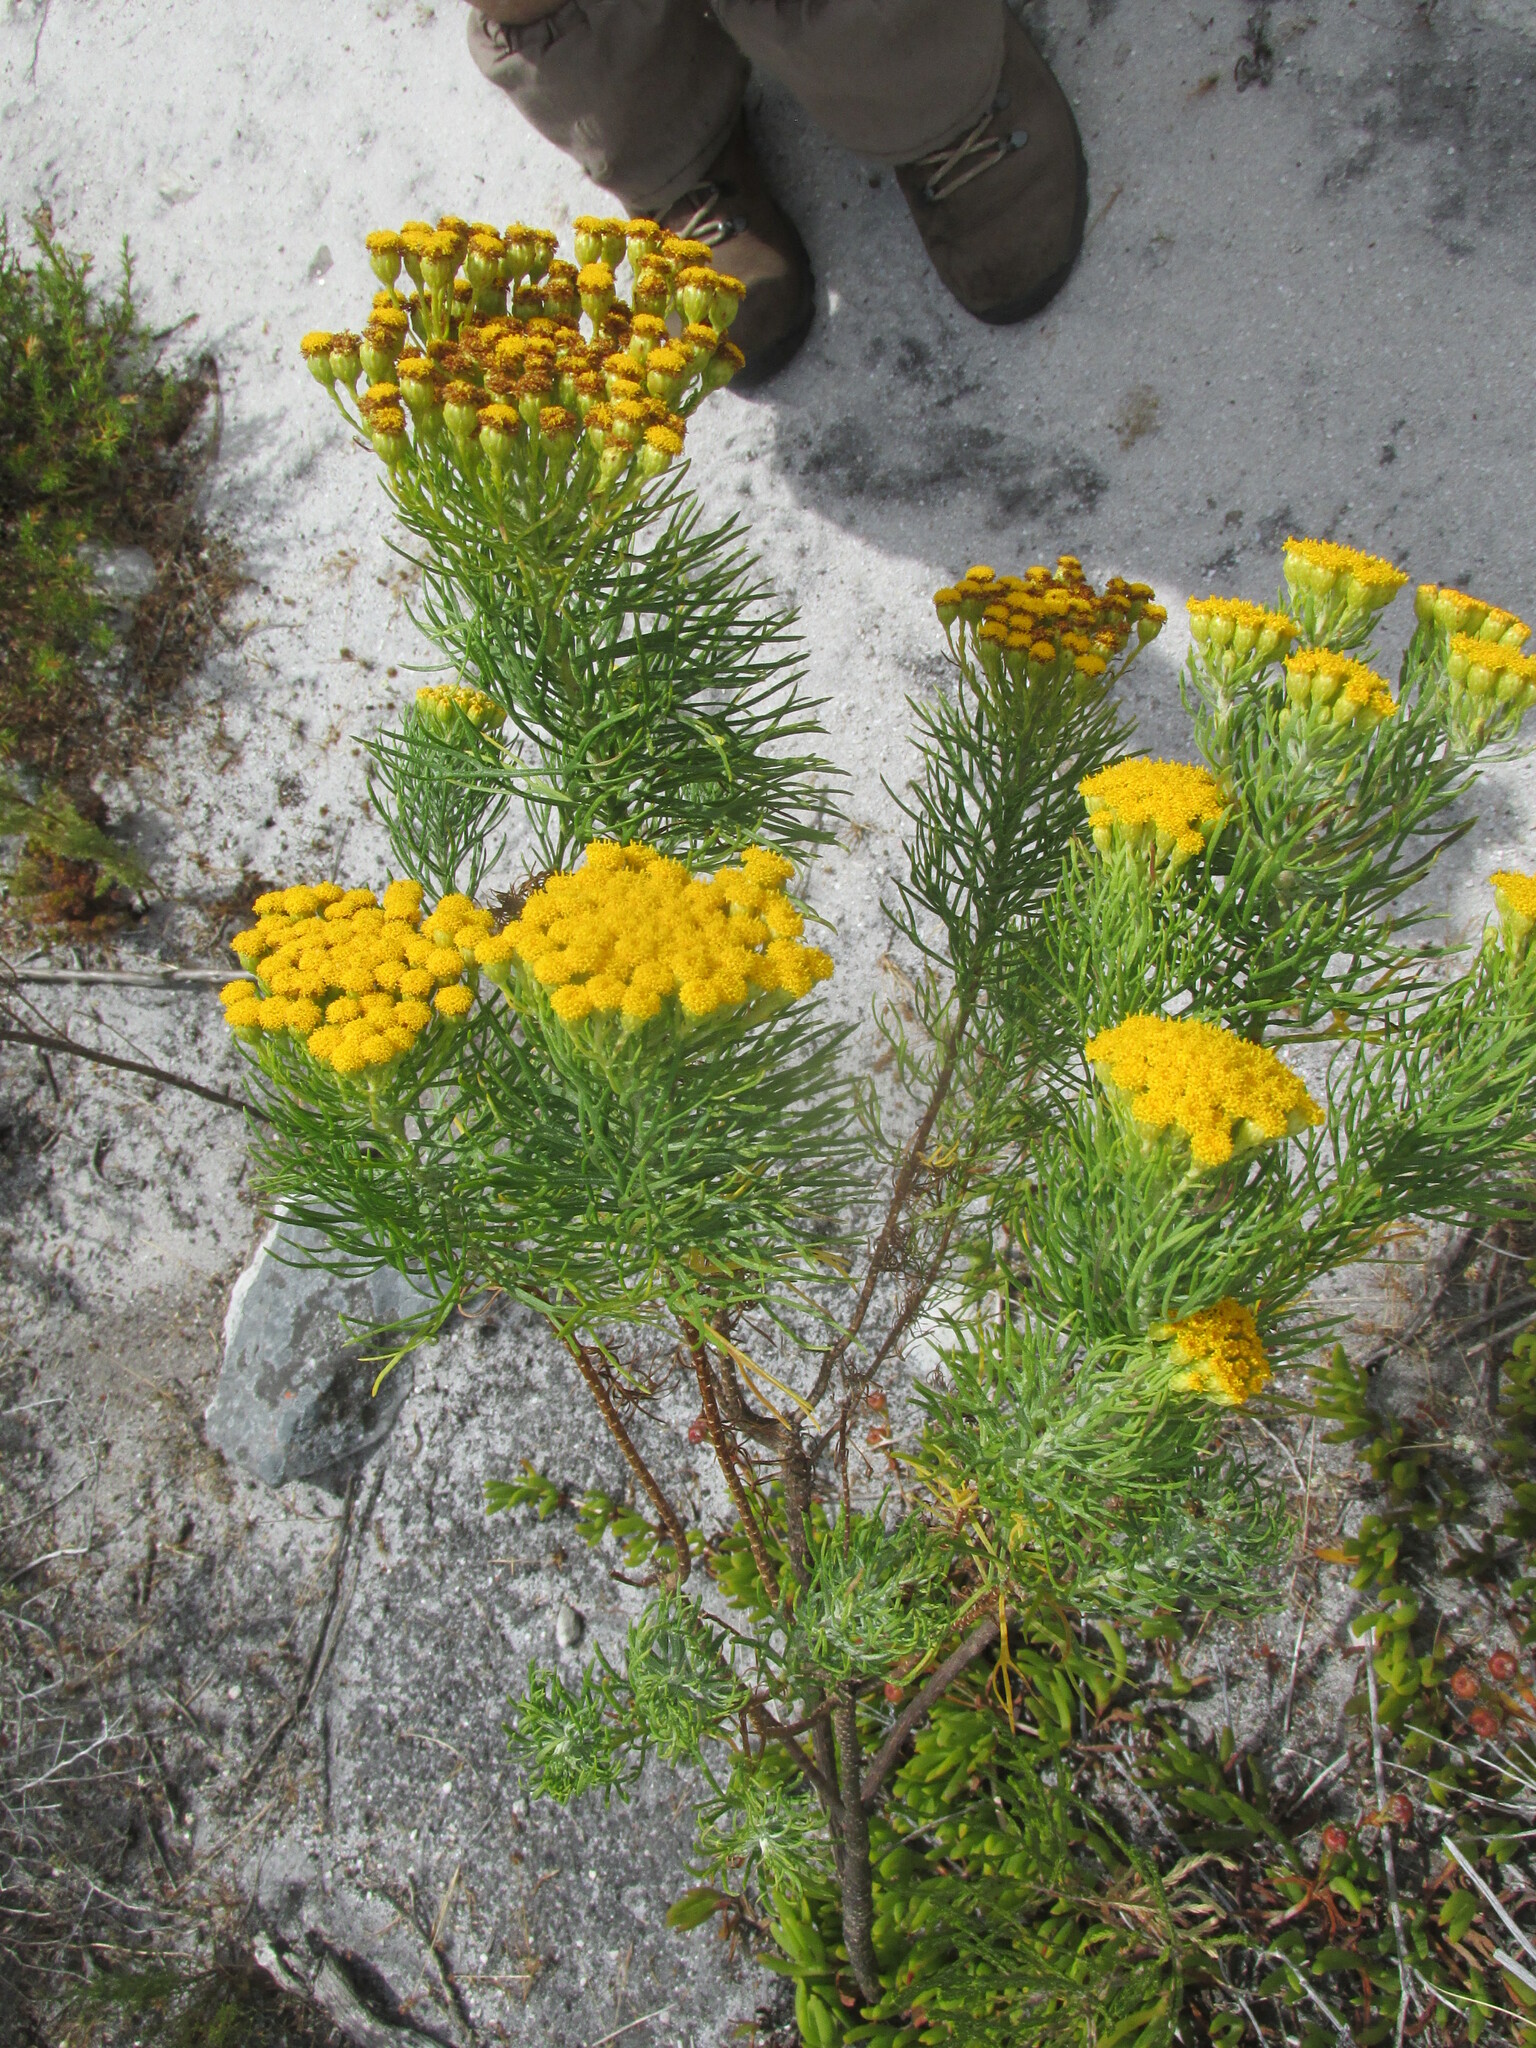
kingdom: Plantae
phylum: Tracheophyta
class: Magnoliopsida
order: Asterales
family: Asteraceae
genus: Athanasia
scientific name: Athanasia trifurcata
